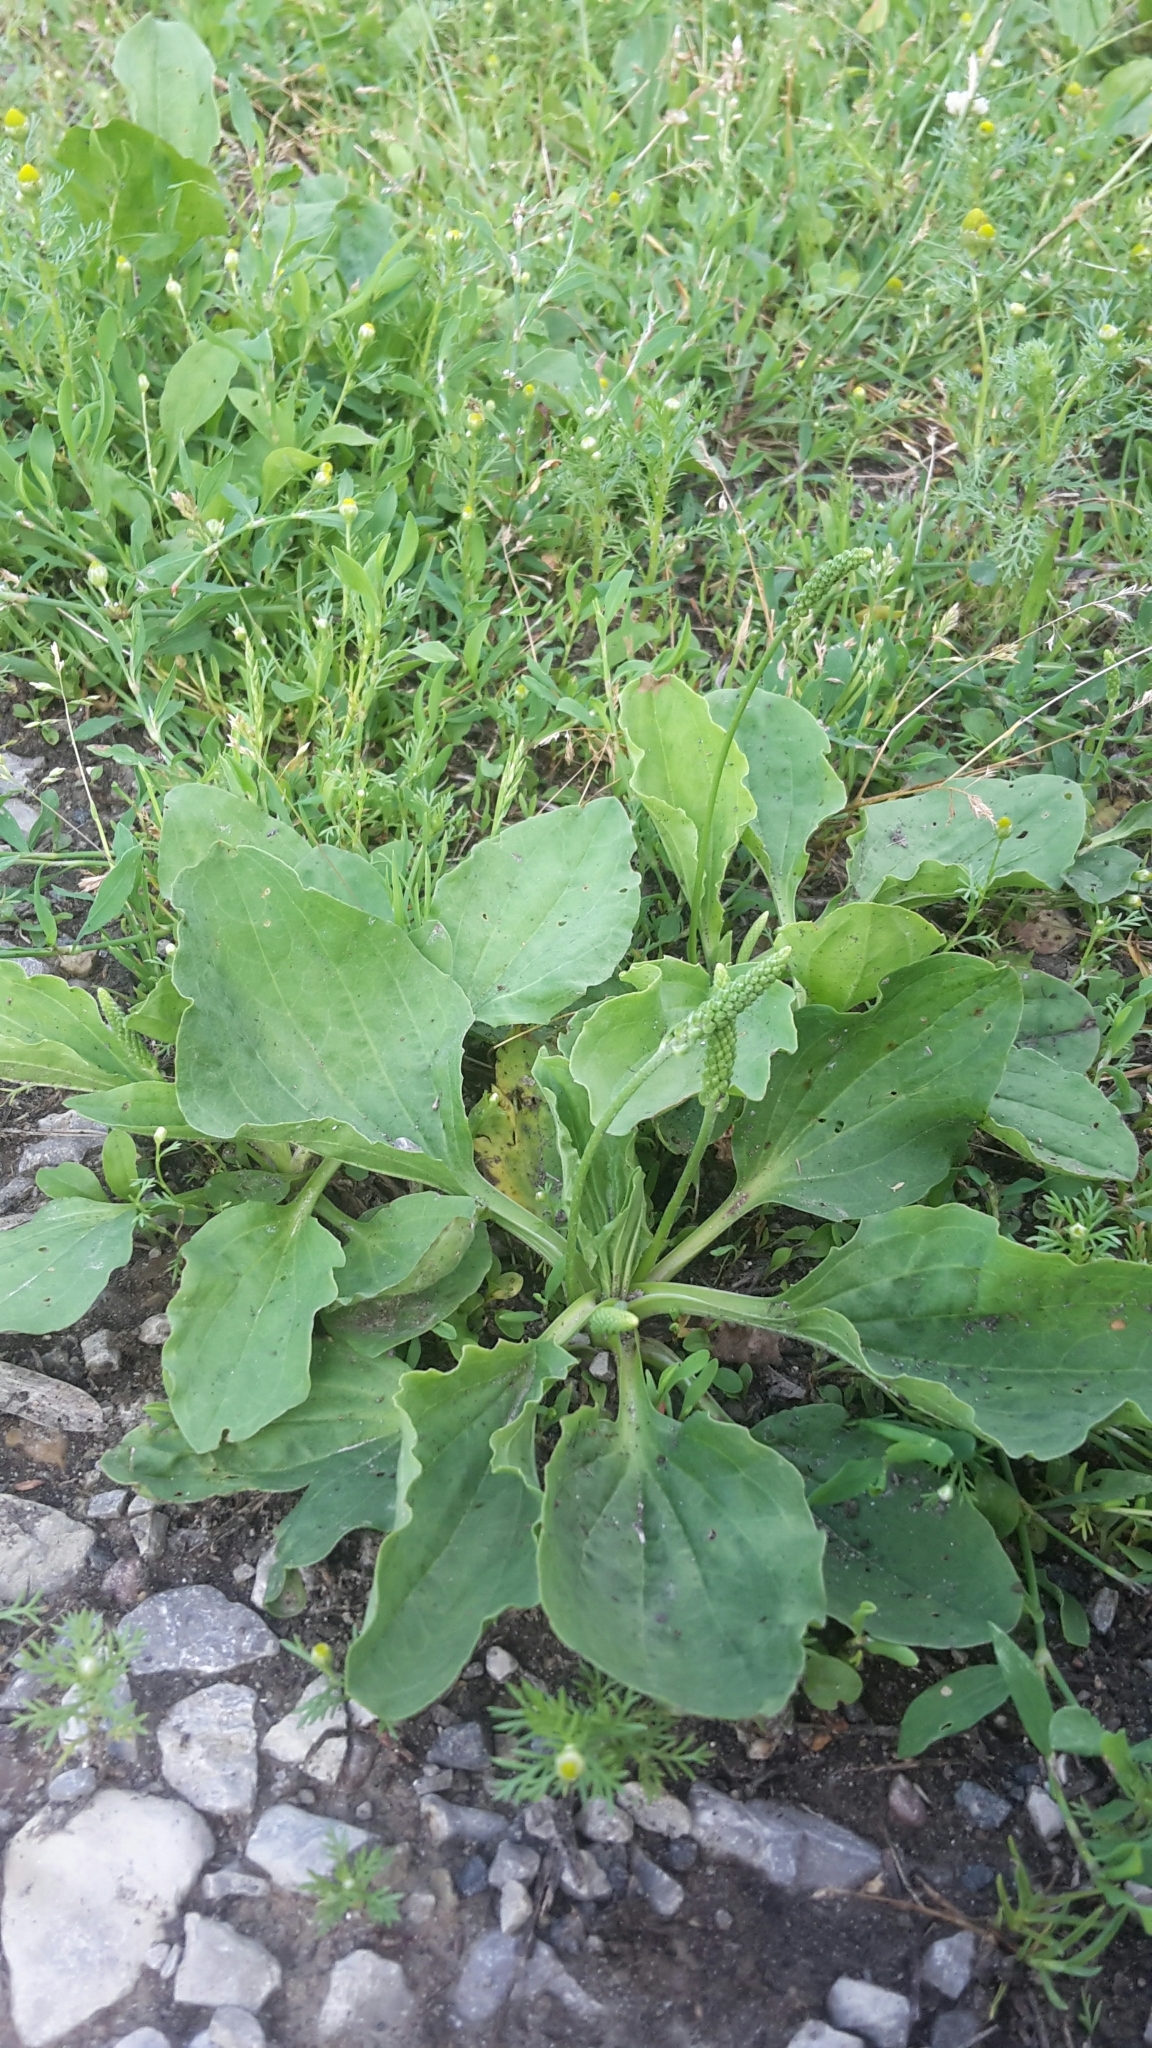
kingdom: Plantae
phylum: Tracheophyta
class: Magnoliopsida
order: Lamiales
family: Plantaginaceae
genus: Plantago
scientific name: Plantago major
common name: Common plantain
